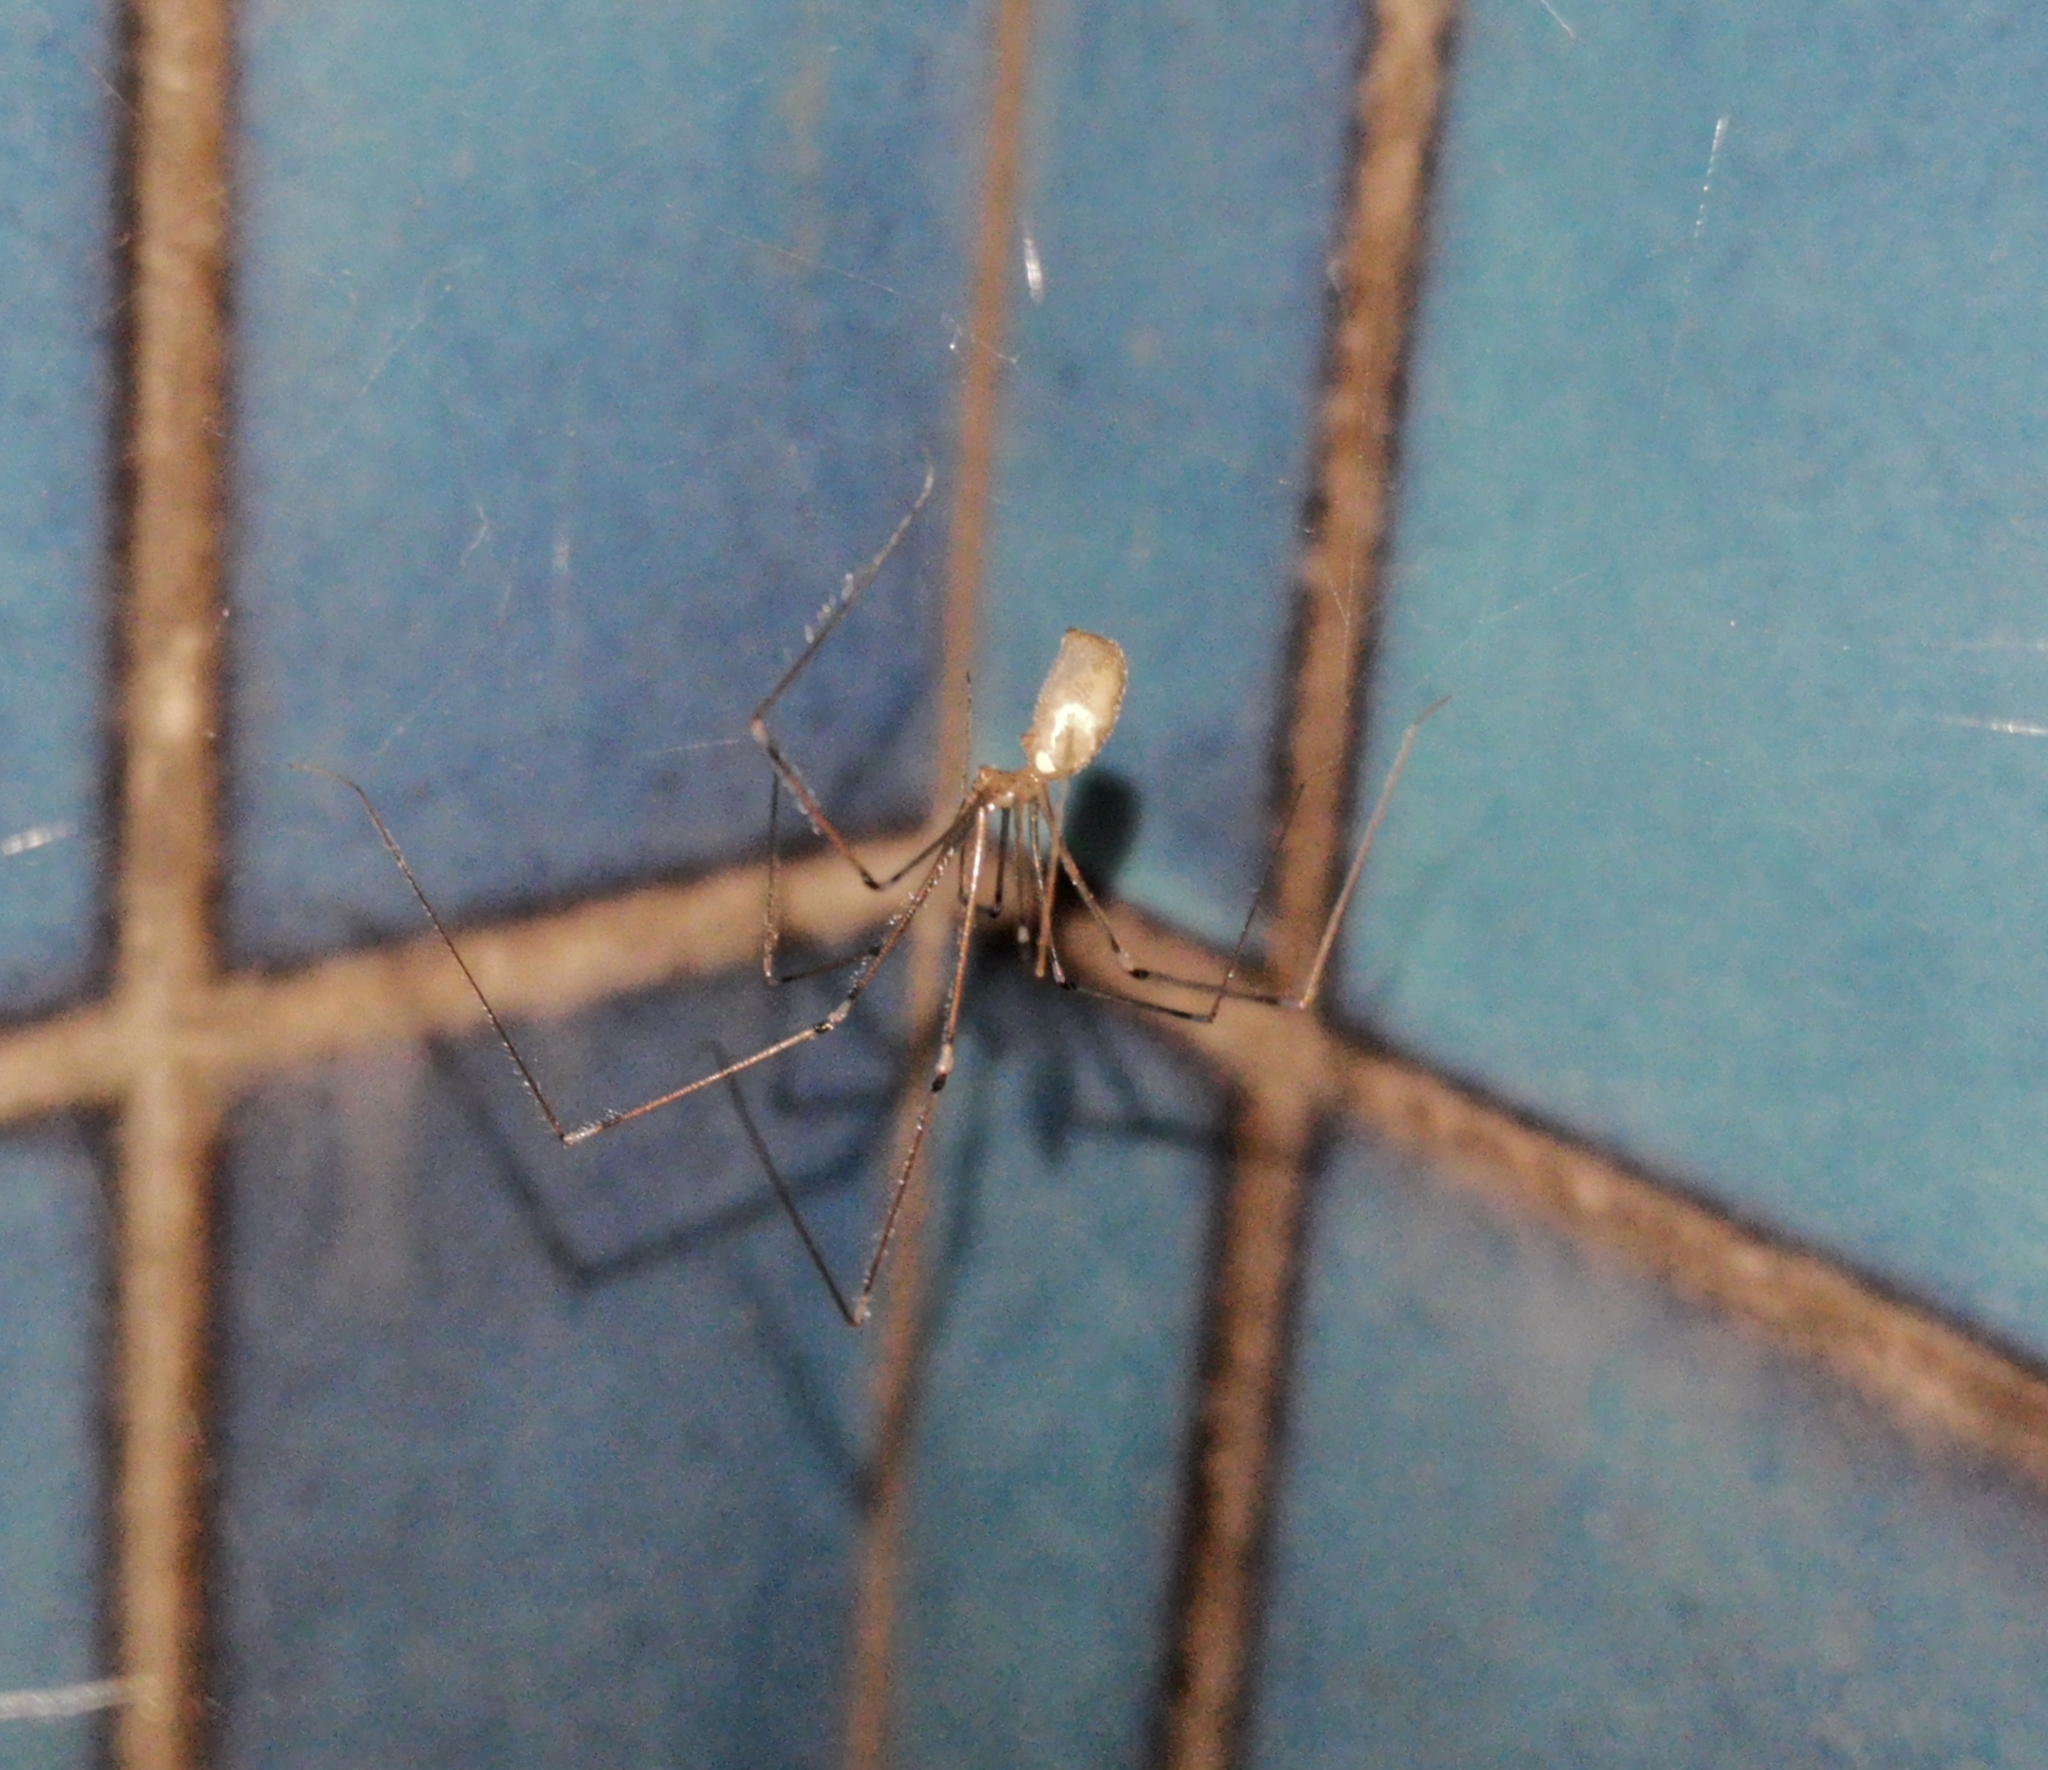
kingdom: Animalia
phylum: Arthropoda
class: Arachnida
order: Araneae
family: Pholcidae
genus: Pholcus
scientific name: Pholcus phalangioides
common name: Longbodied cellar spider
